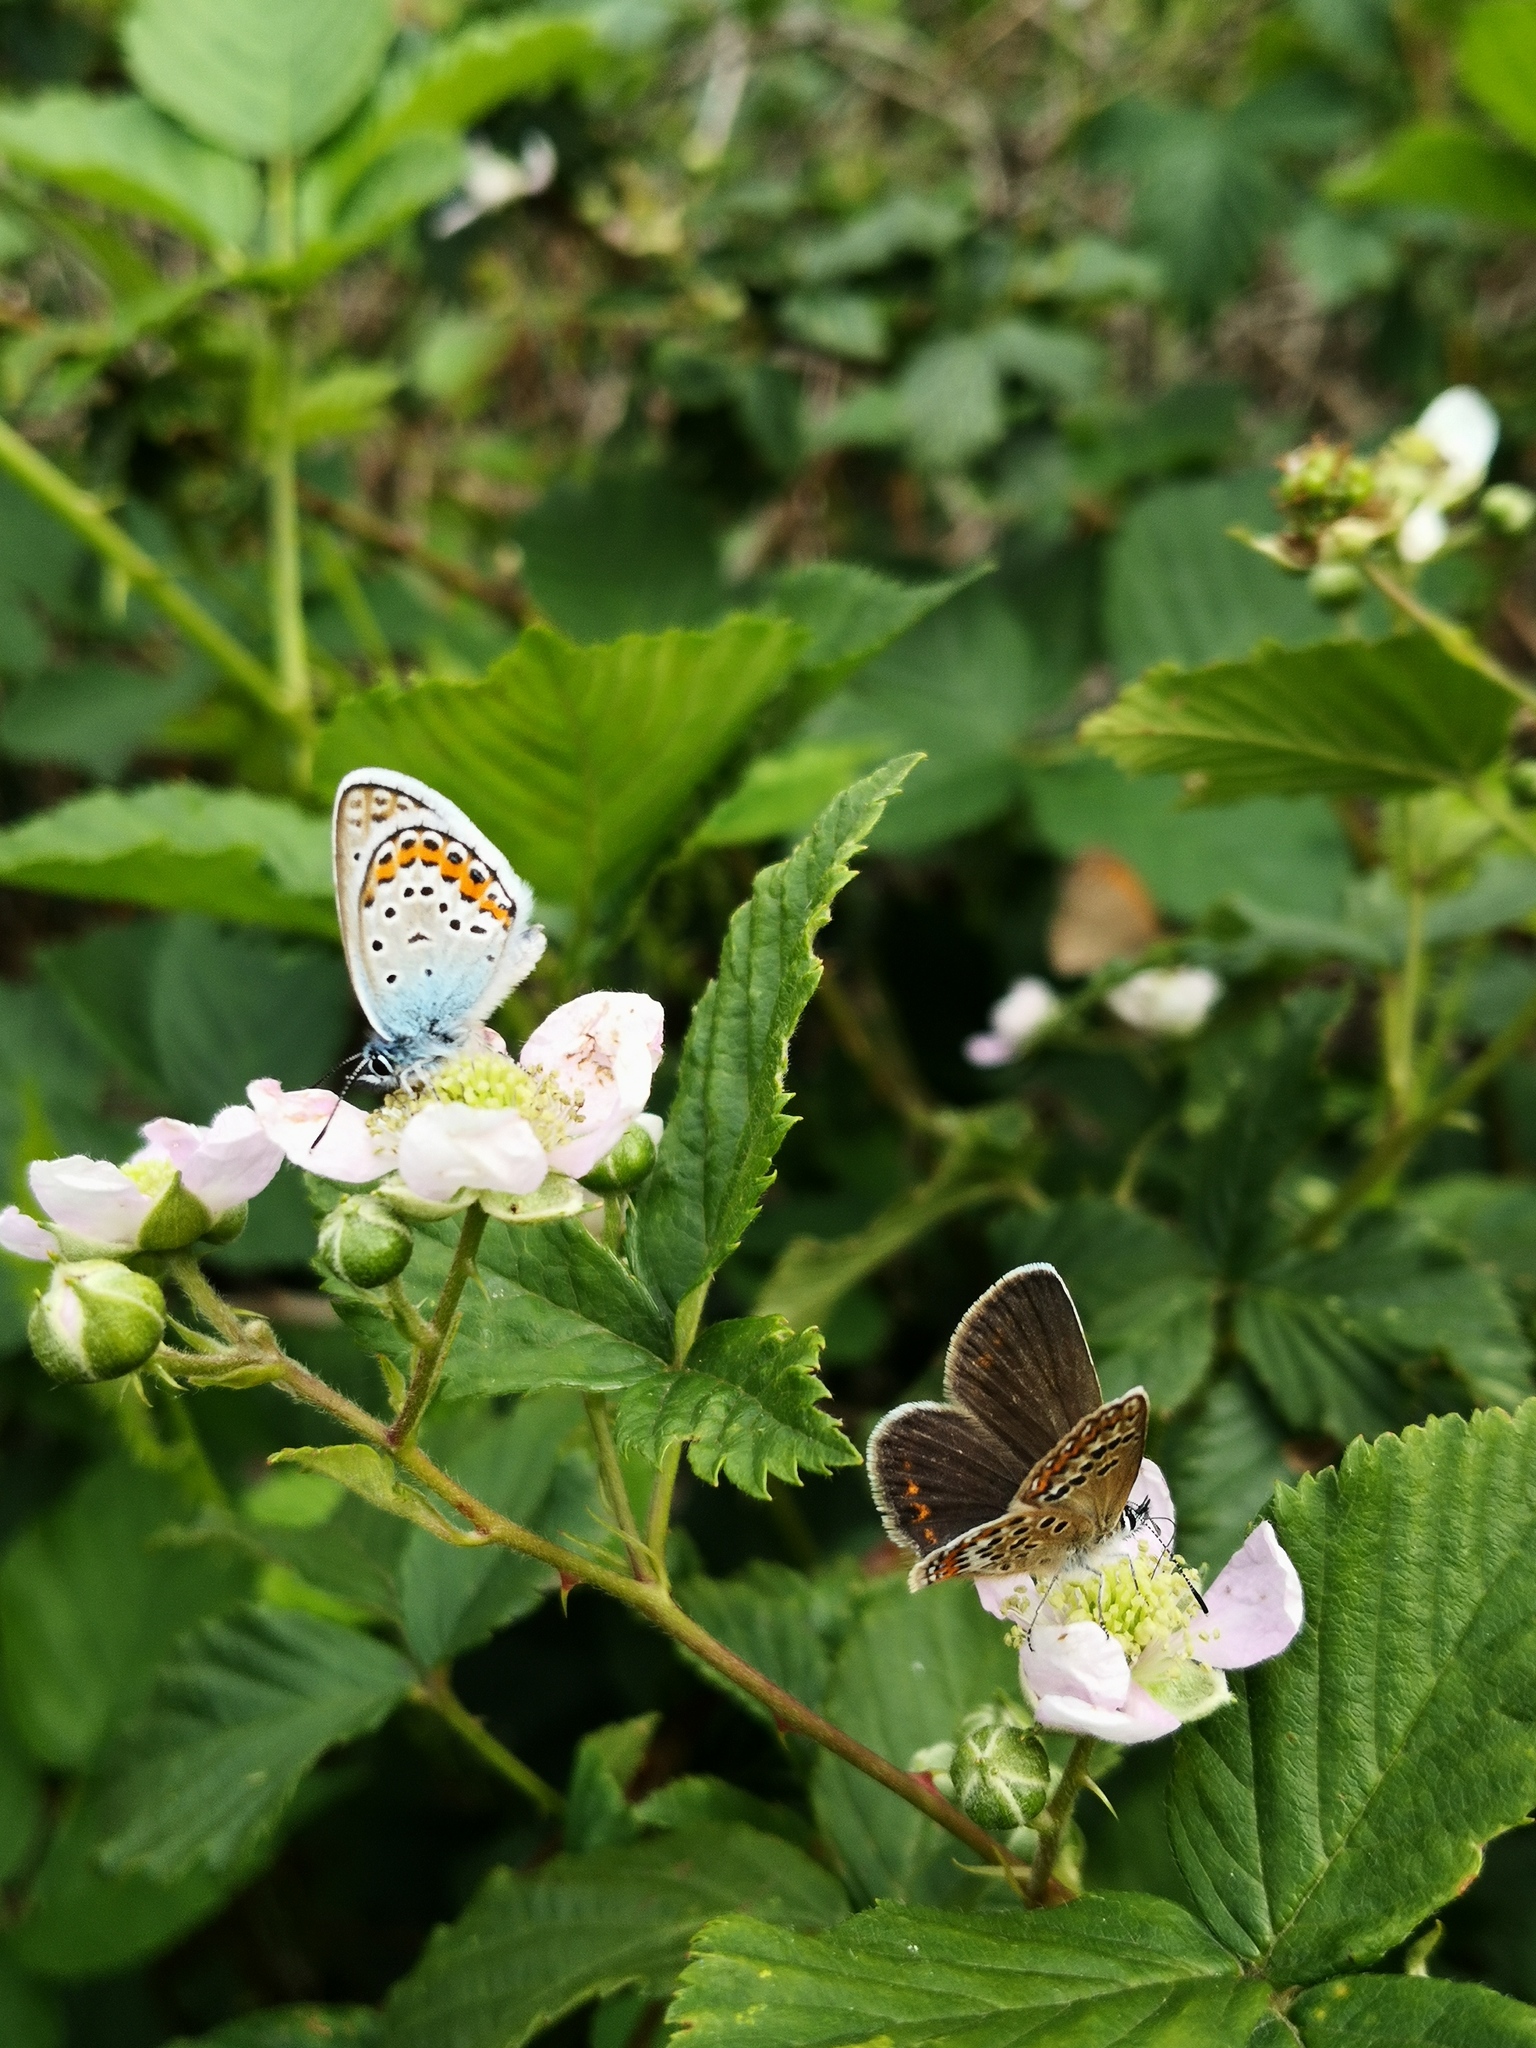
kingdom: Animalia
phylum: Arthropoda
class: Insecta
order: Lepidoptera
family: Lycaenidae
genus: Plebejus
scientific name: Plebejus argus
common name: Silver-studded blue
